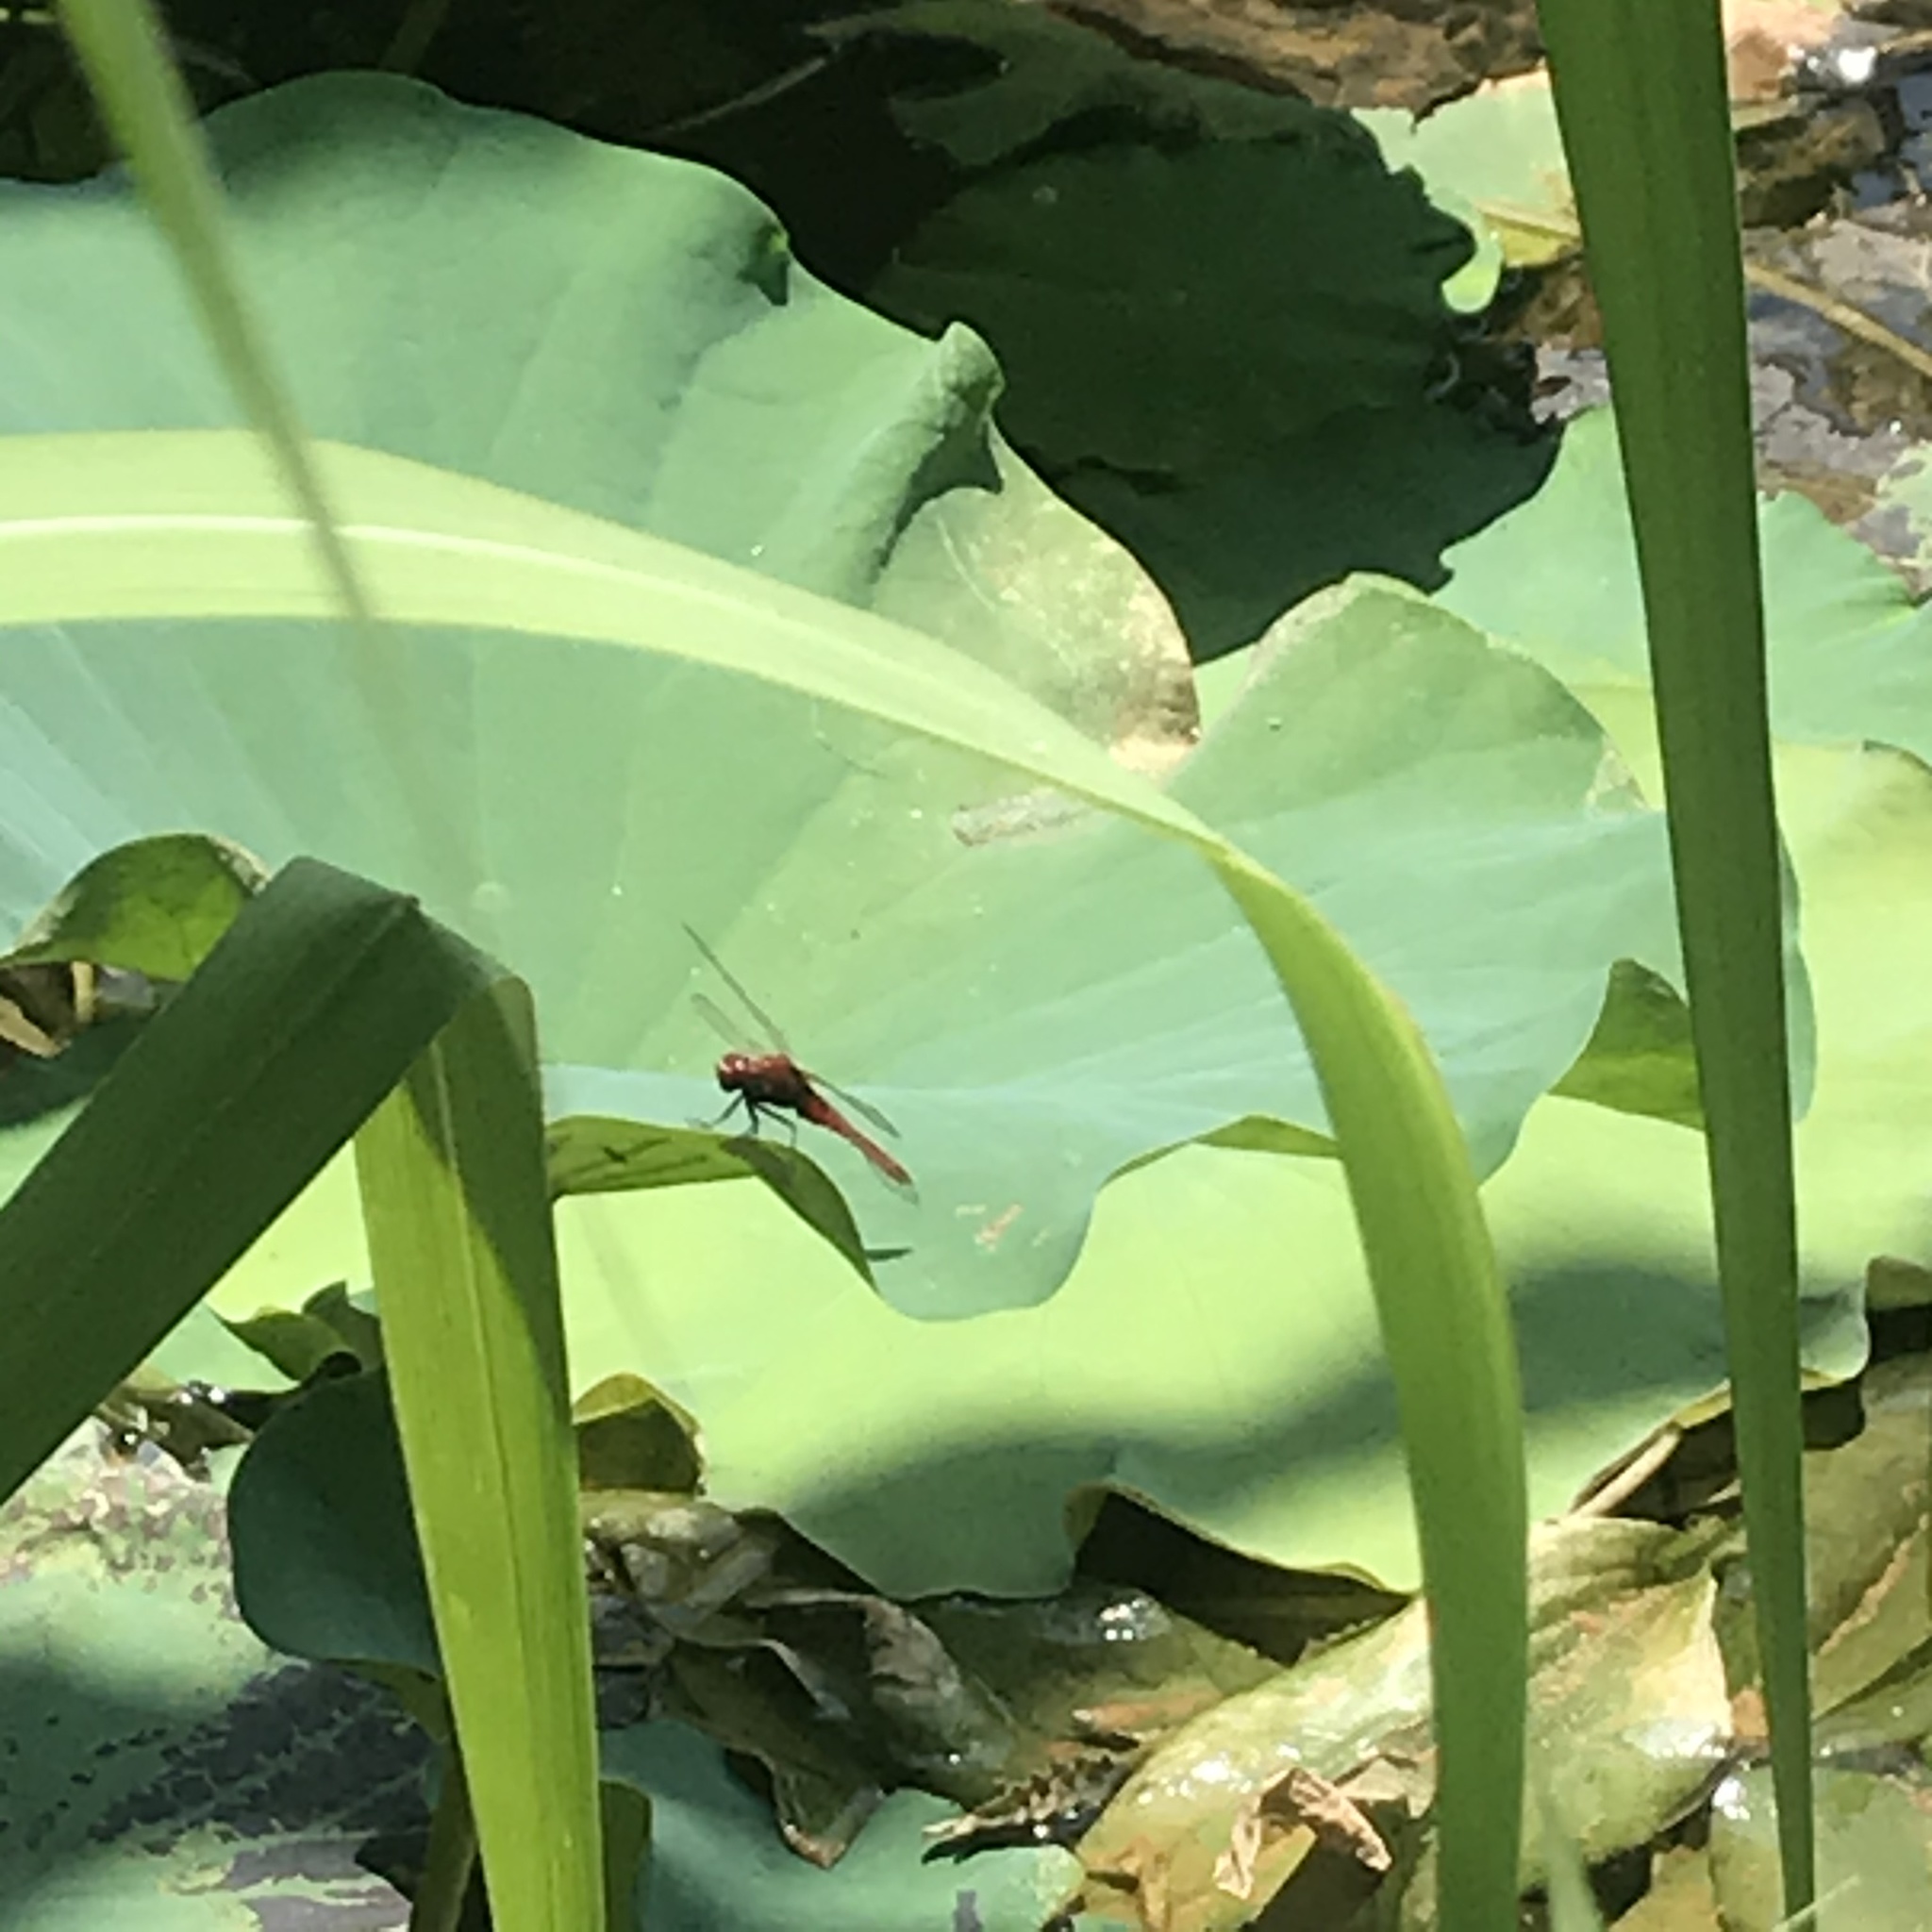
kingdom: Animalia
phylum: Arthropoda
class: Insecta
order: Odonata
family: Libellulidae
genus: Crocothemis
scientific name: Crocothemis servilia
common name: Scarlet skimmer
